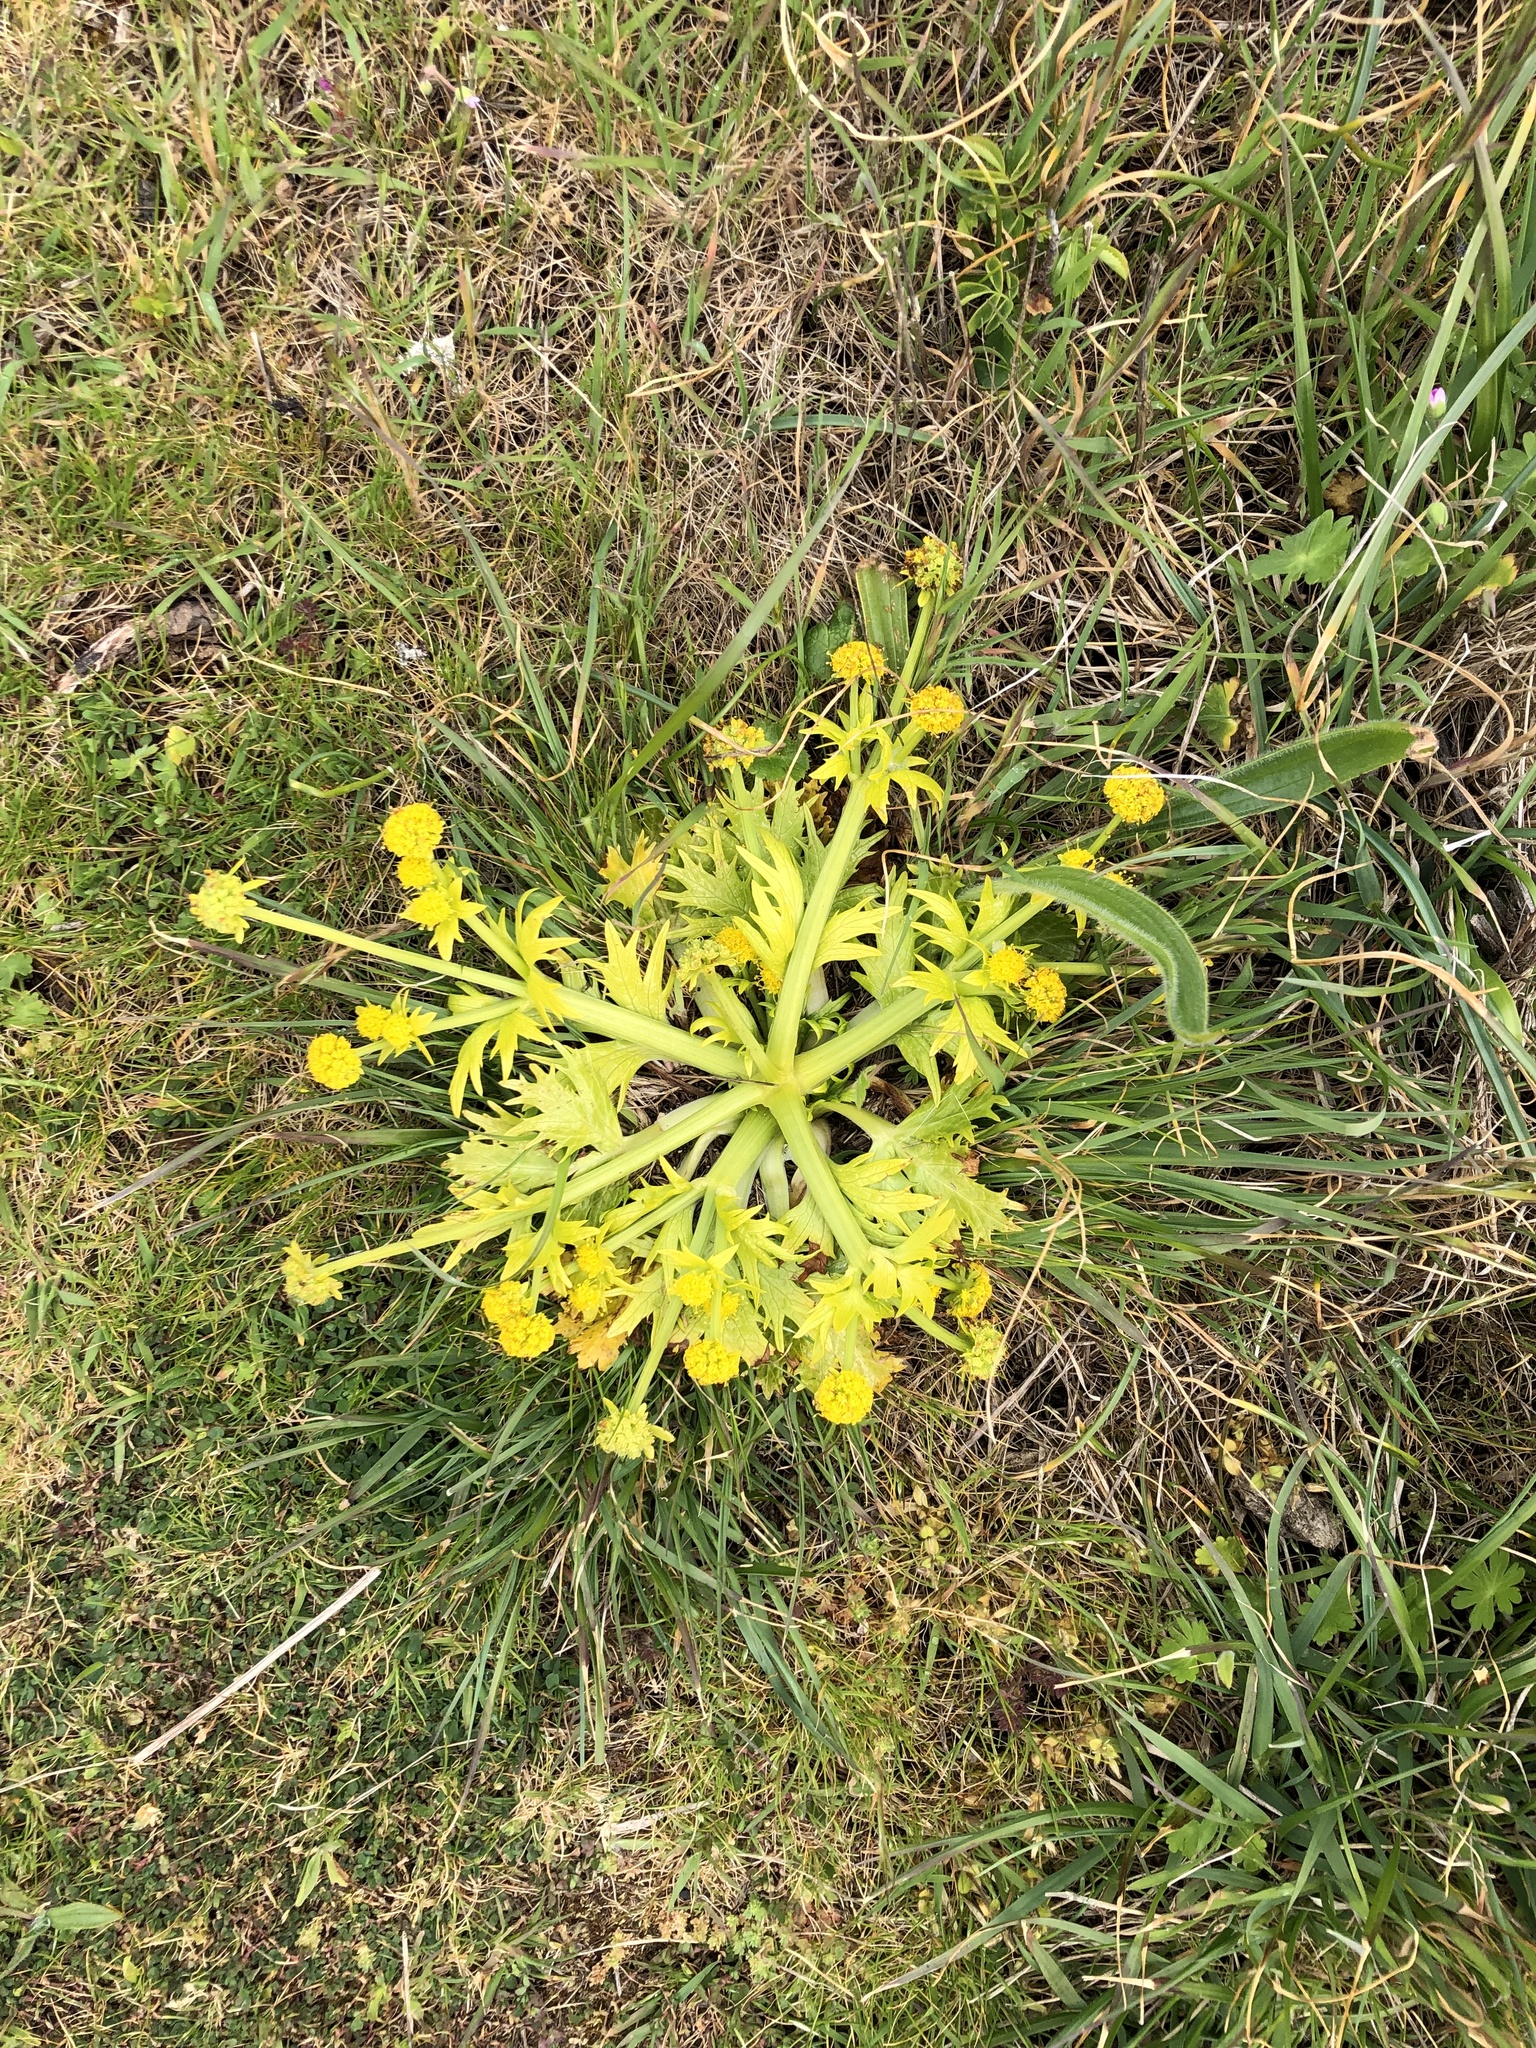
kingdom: Plantae
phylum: Tracheophyta
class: Magnoliopsida
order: Apiales
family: Apiaceae
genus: Sanicula
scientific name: Sanicula arctopoides
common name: Footsteps-of-spring
